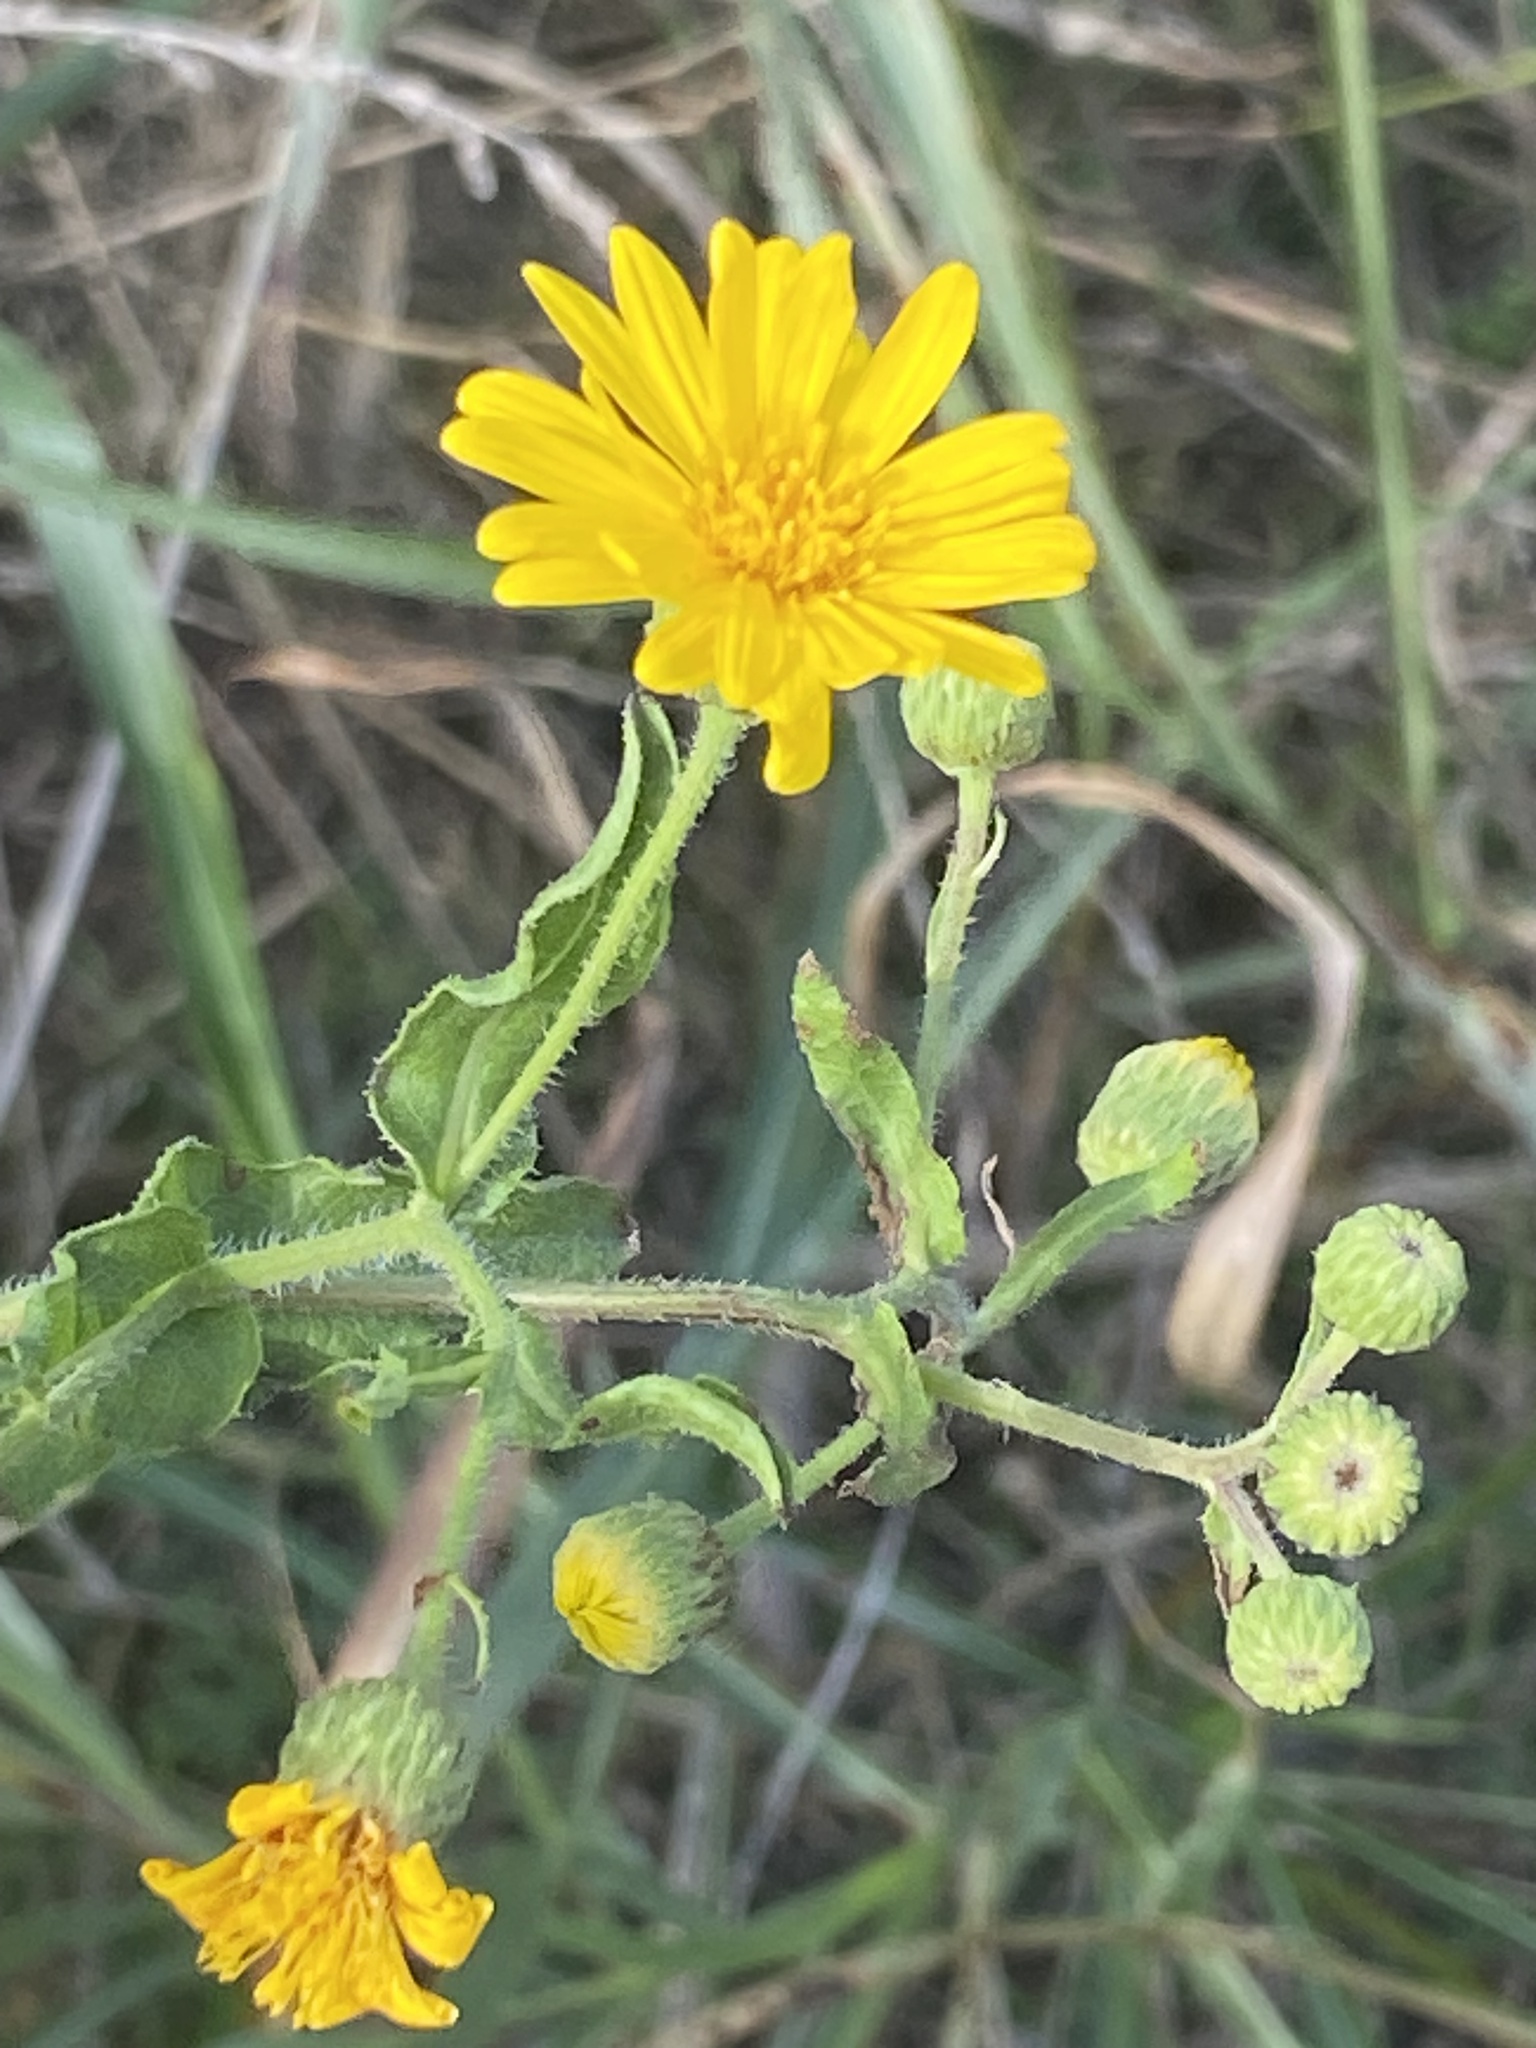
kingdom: Plantae
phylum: Tracheophyta
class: Magnoliopsida
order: Asterales
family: Asteraceae
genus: Heterotheca
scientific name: Heterotheca subaxillaris
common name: Camphorweed
